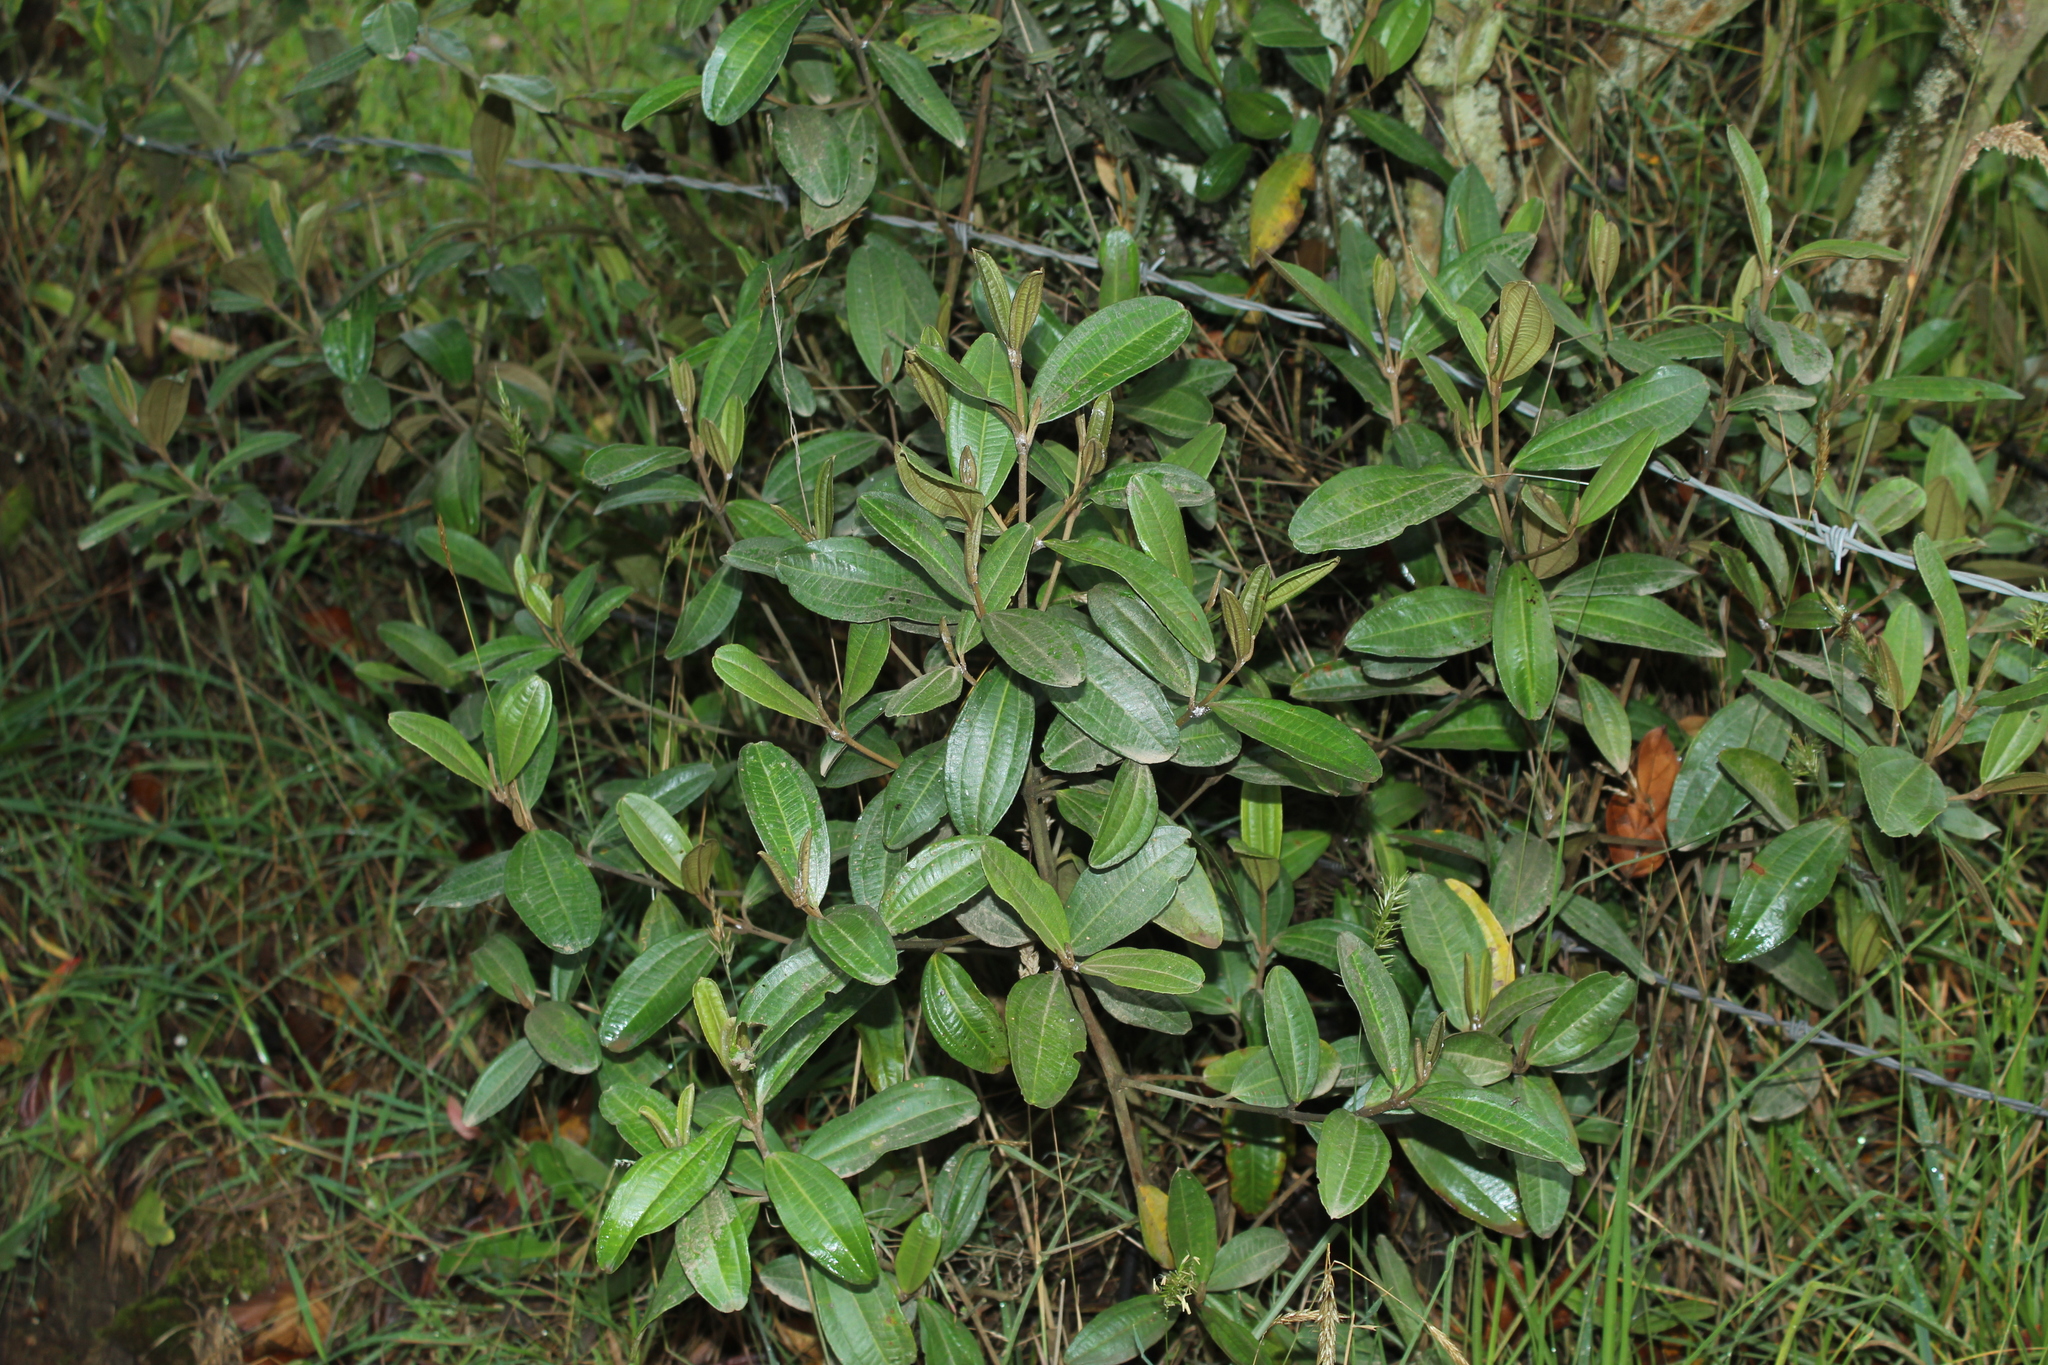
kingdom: Plantae
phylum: Tracheophyta
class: Magnoliopsida
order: Myrtales
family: Melastomataceae
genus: Miconia
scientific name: Miconia squamulosa
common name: Squamulose maya
